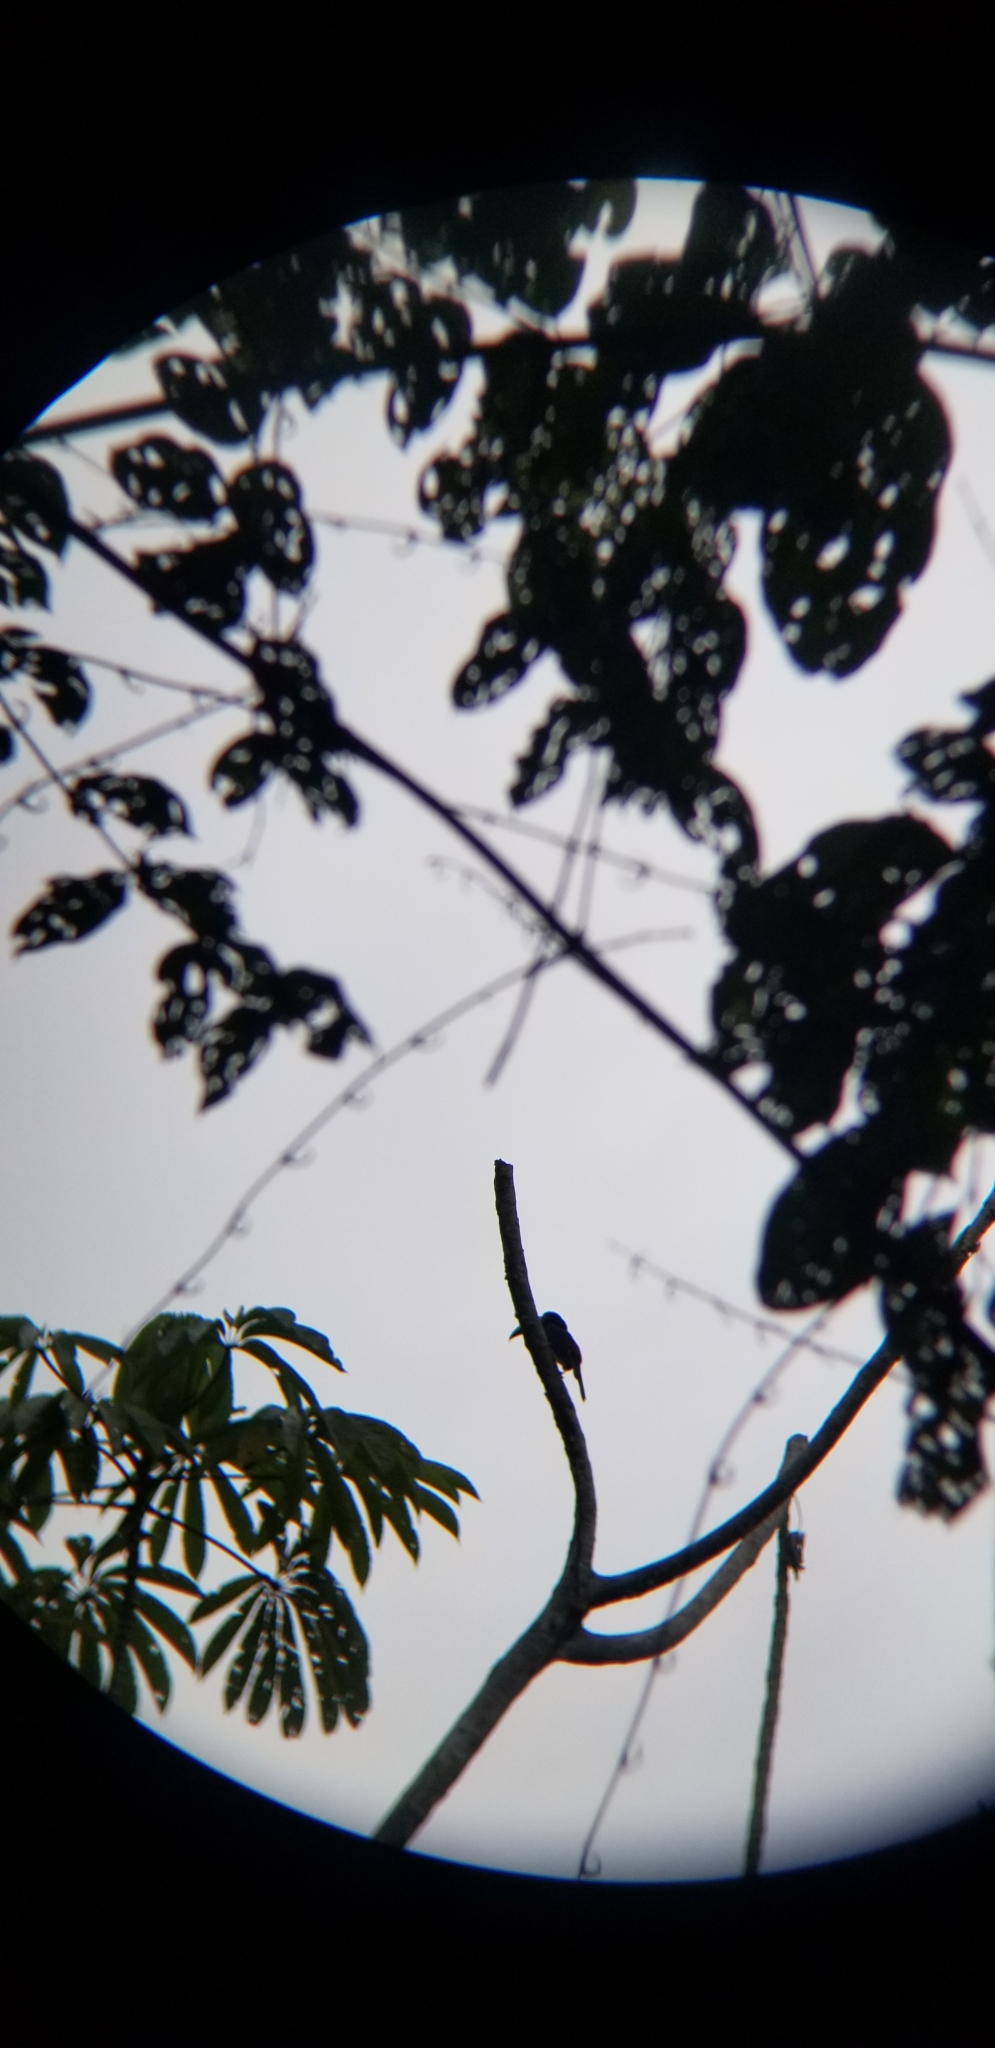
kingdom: Animalia
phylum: Chordata
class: Aves
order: Piciformes
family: Ramphastidae
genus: Pteroglossus
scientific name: Pteroglossus
